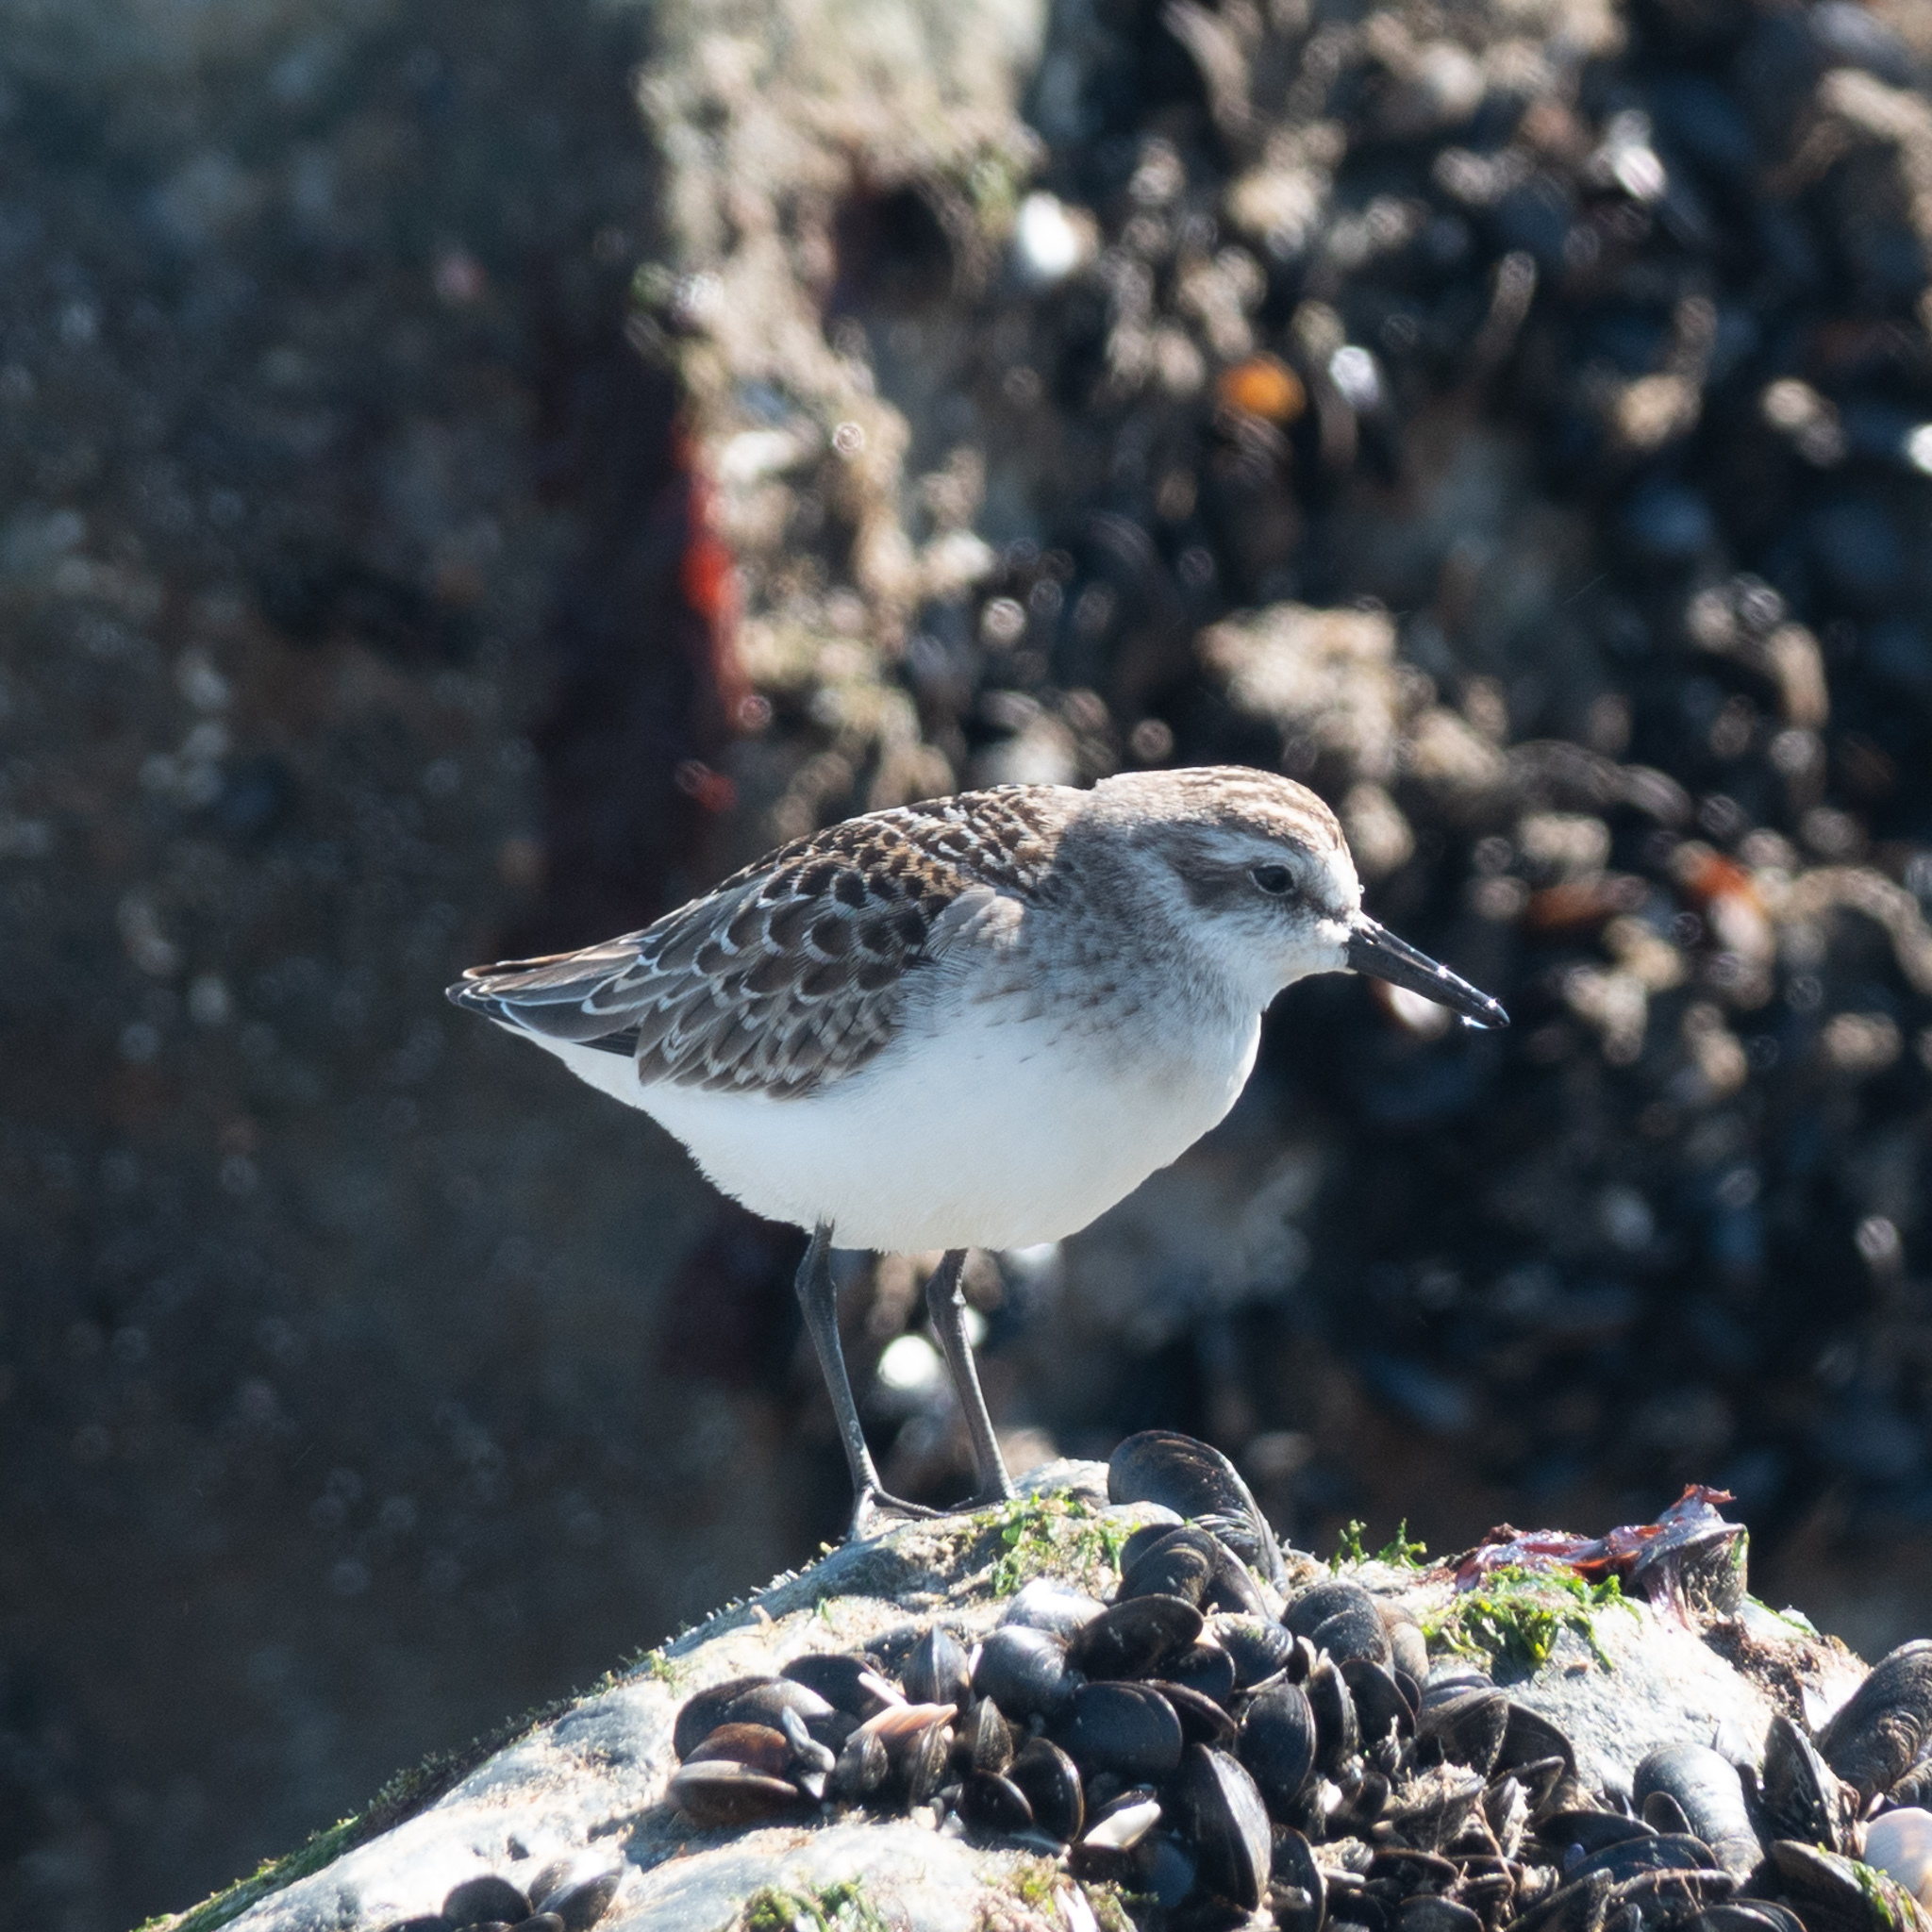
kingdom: Animalia
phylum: Chordata
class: Aves
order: Charadriiformes
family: Scolopacidae
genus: Calidris
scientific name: Calidris pusilla
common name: Semipalmated sandpiper
